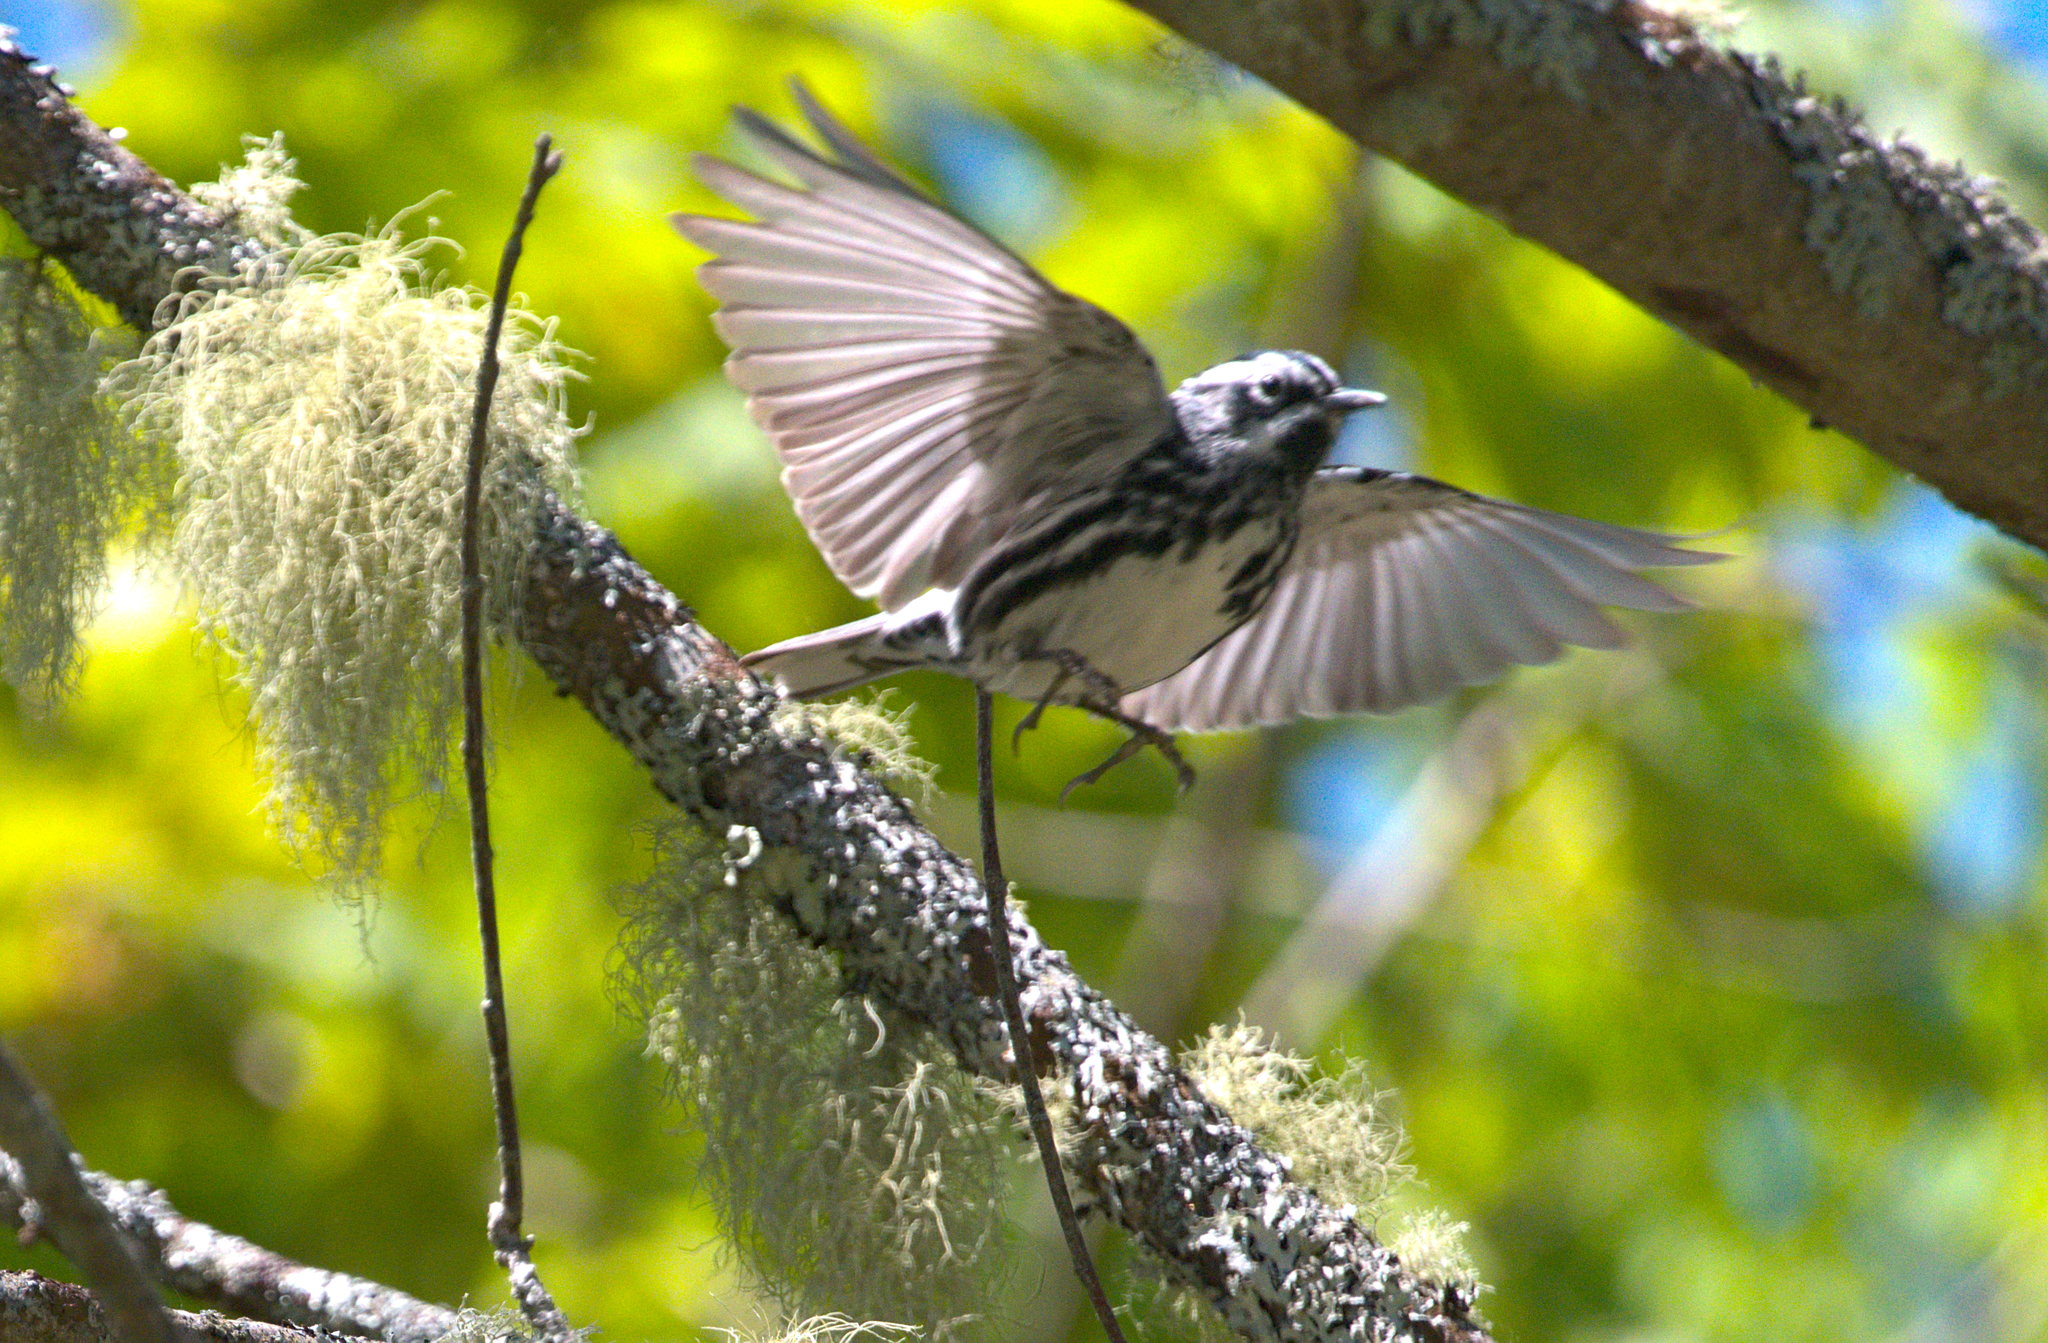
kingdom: Animalia
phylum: Chordata
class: Aves
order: Passeriformes
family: Parulidae
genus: Mniotilta
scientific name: Mniotilta varia
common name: Black-and-white warbler
